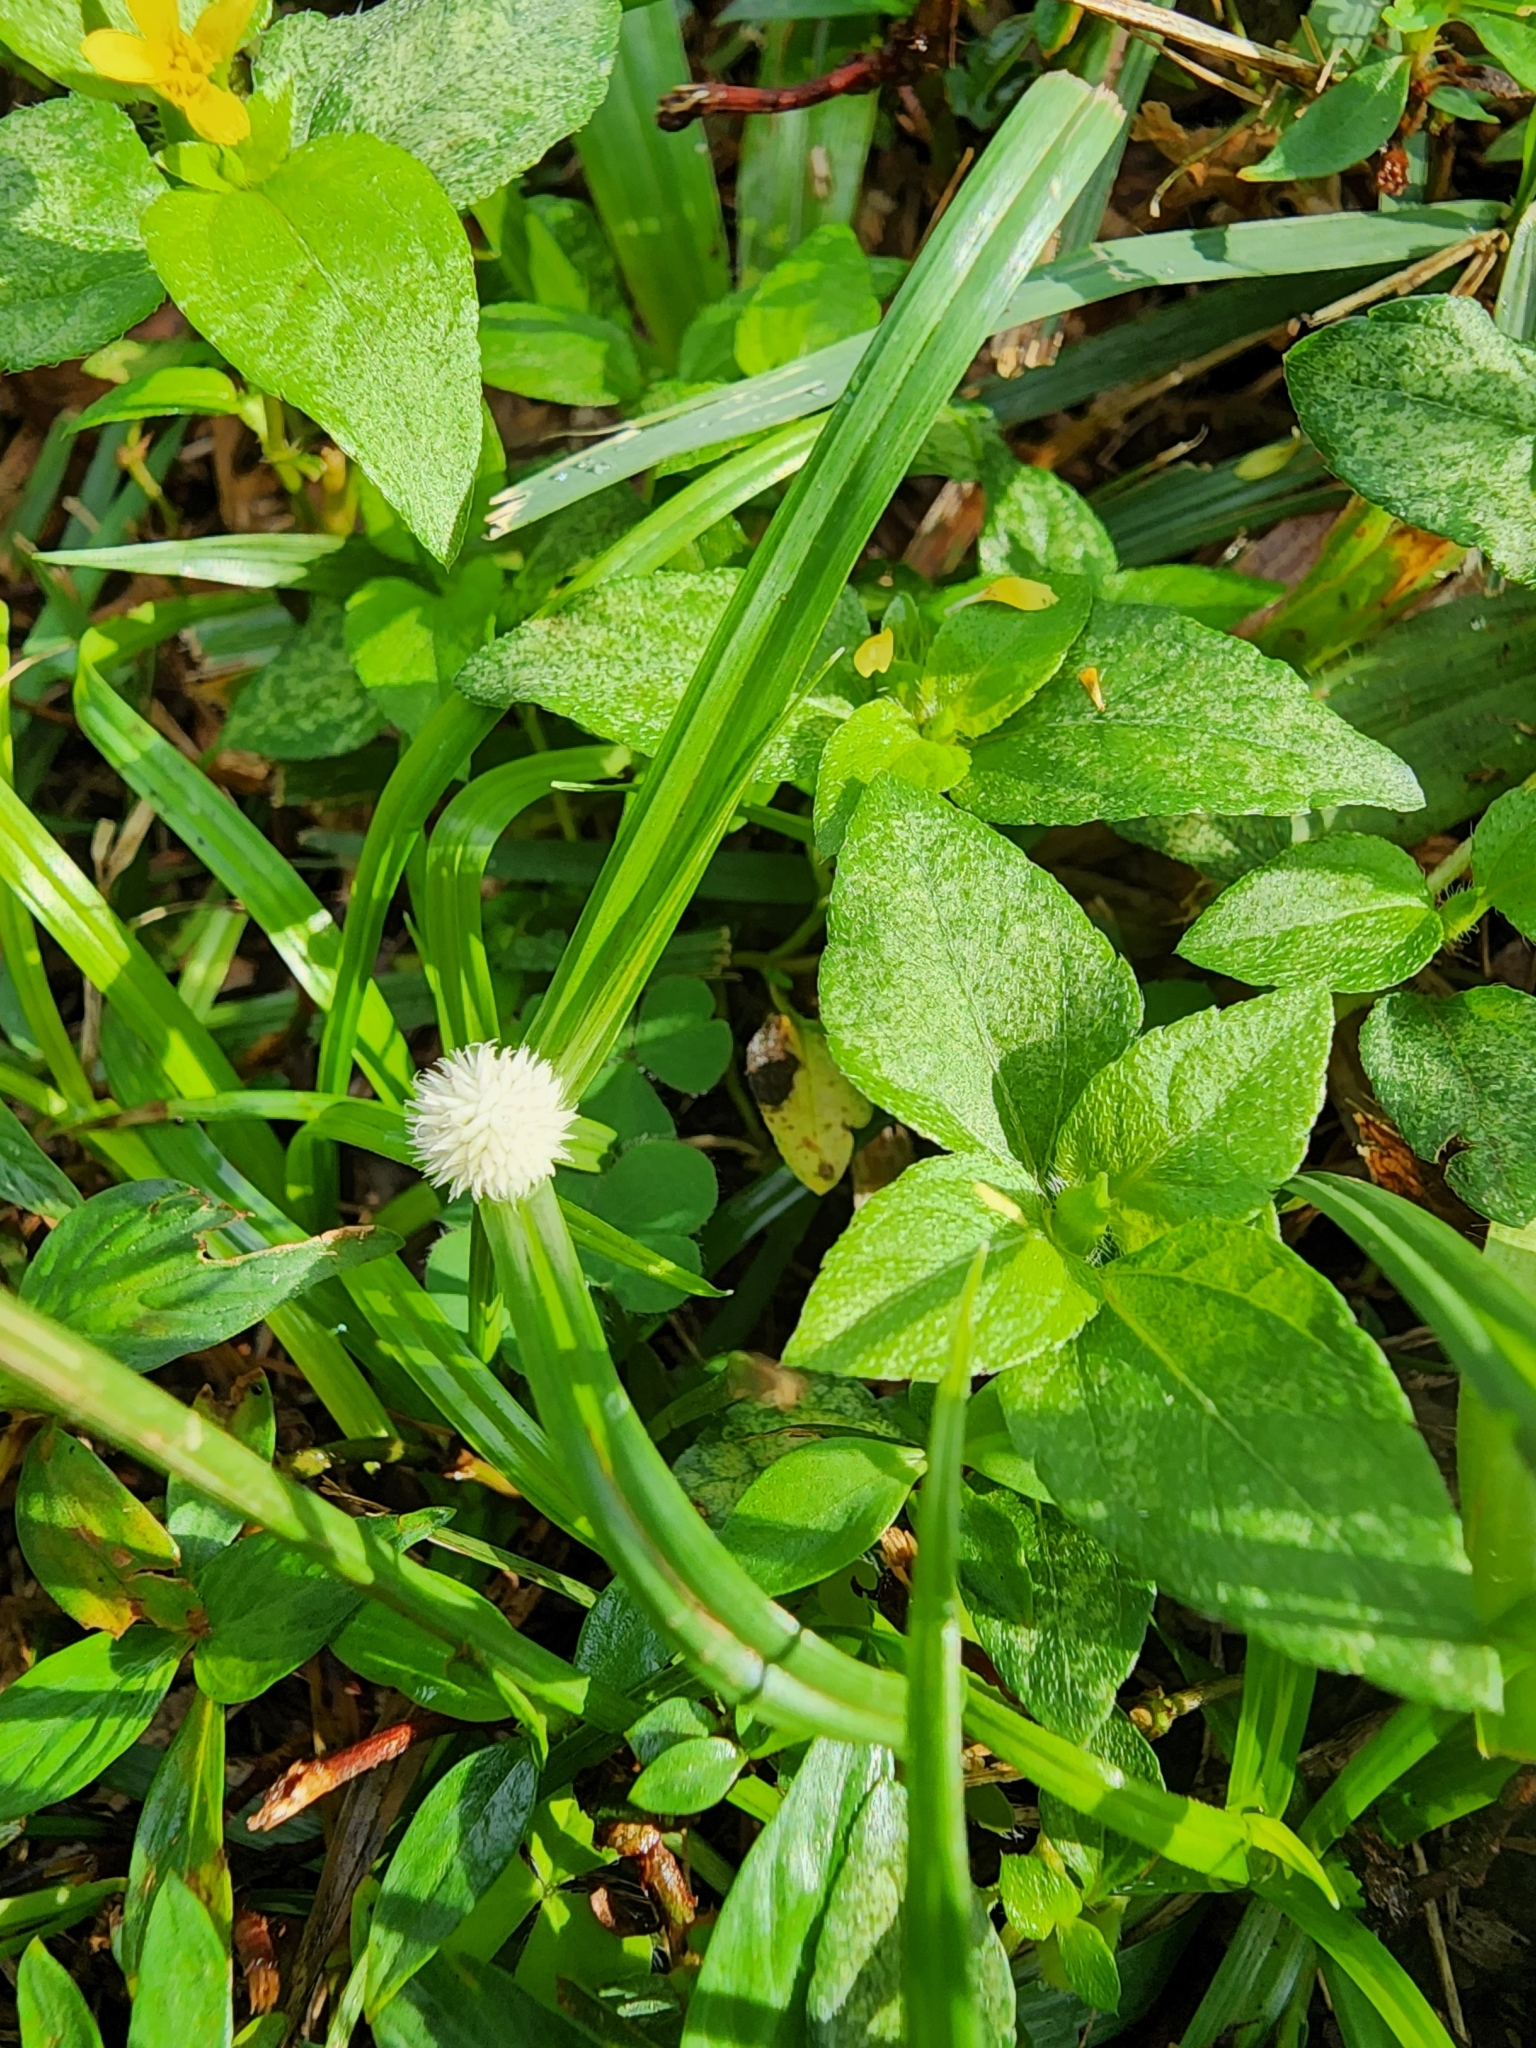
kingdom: Plantae
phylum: Tracheophyta
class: Liliopsida
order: Poales
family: Cyperaceae
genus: Cyperus
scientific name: Cyperus mindorensis
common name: Flatsedge
